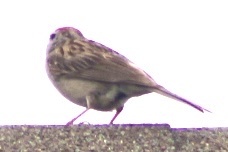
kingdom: Animalia
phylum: Chordata
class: Aves
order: Passeriformes
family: Passerellidae
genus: Spizella
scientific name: Spizella passerina
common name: Chipping sparrow
